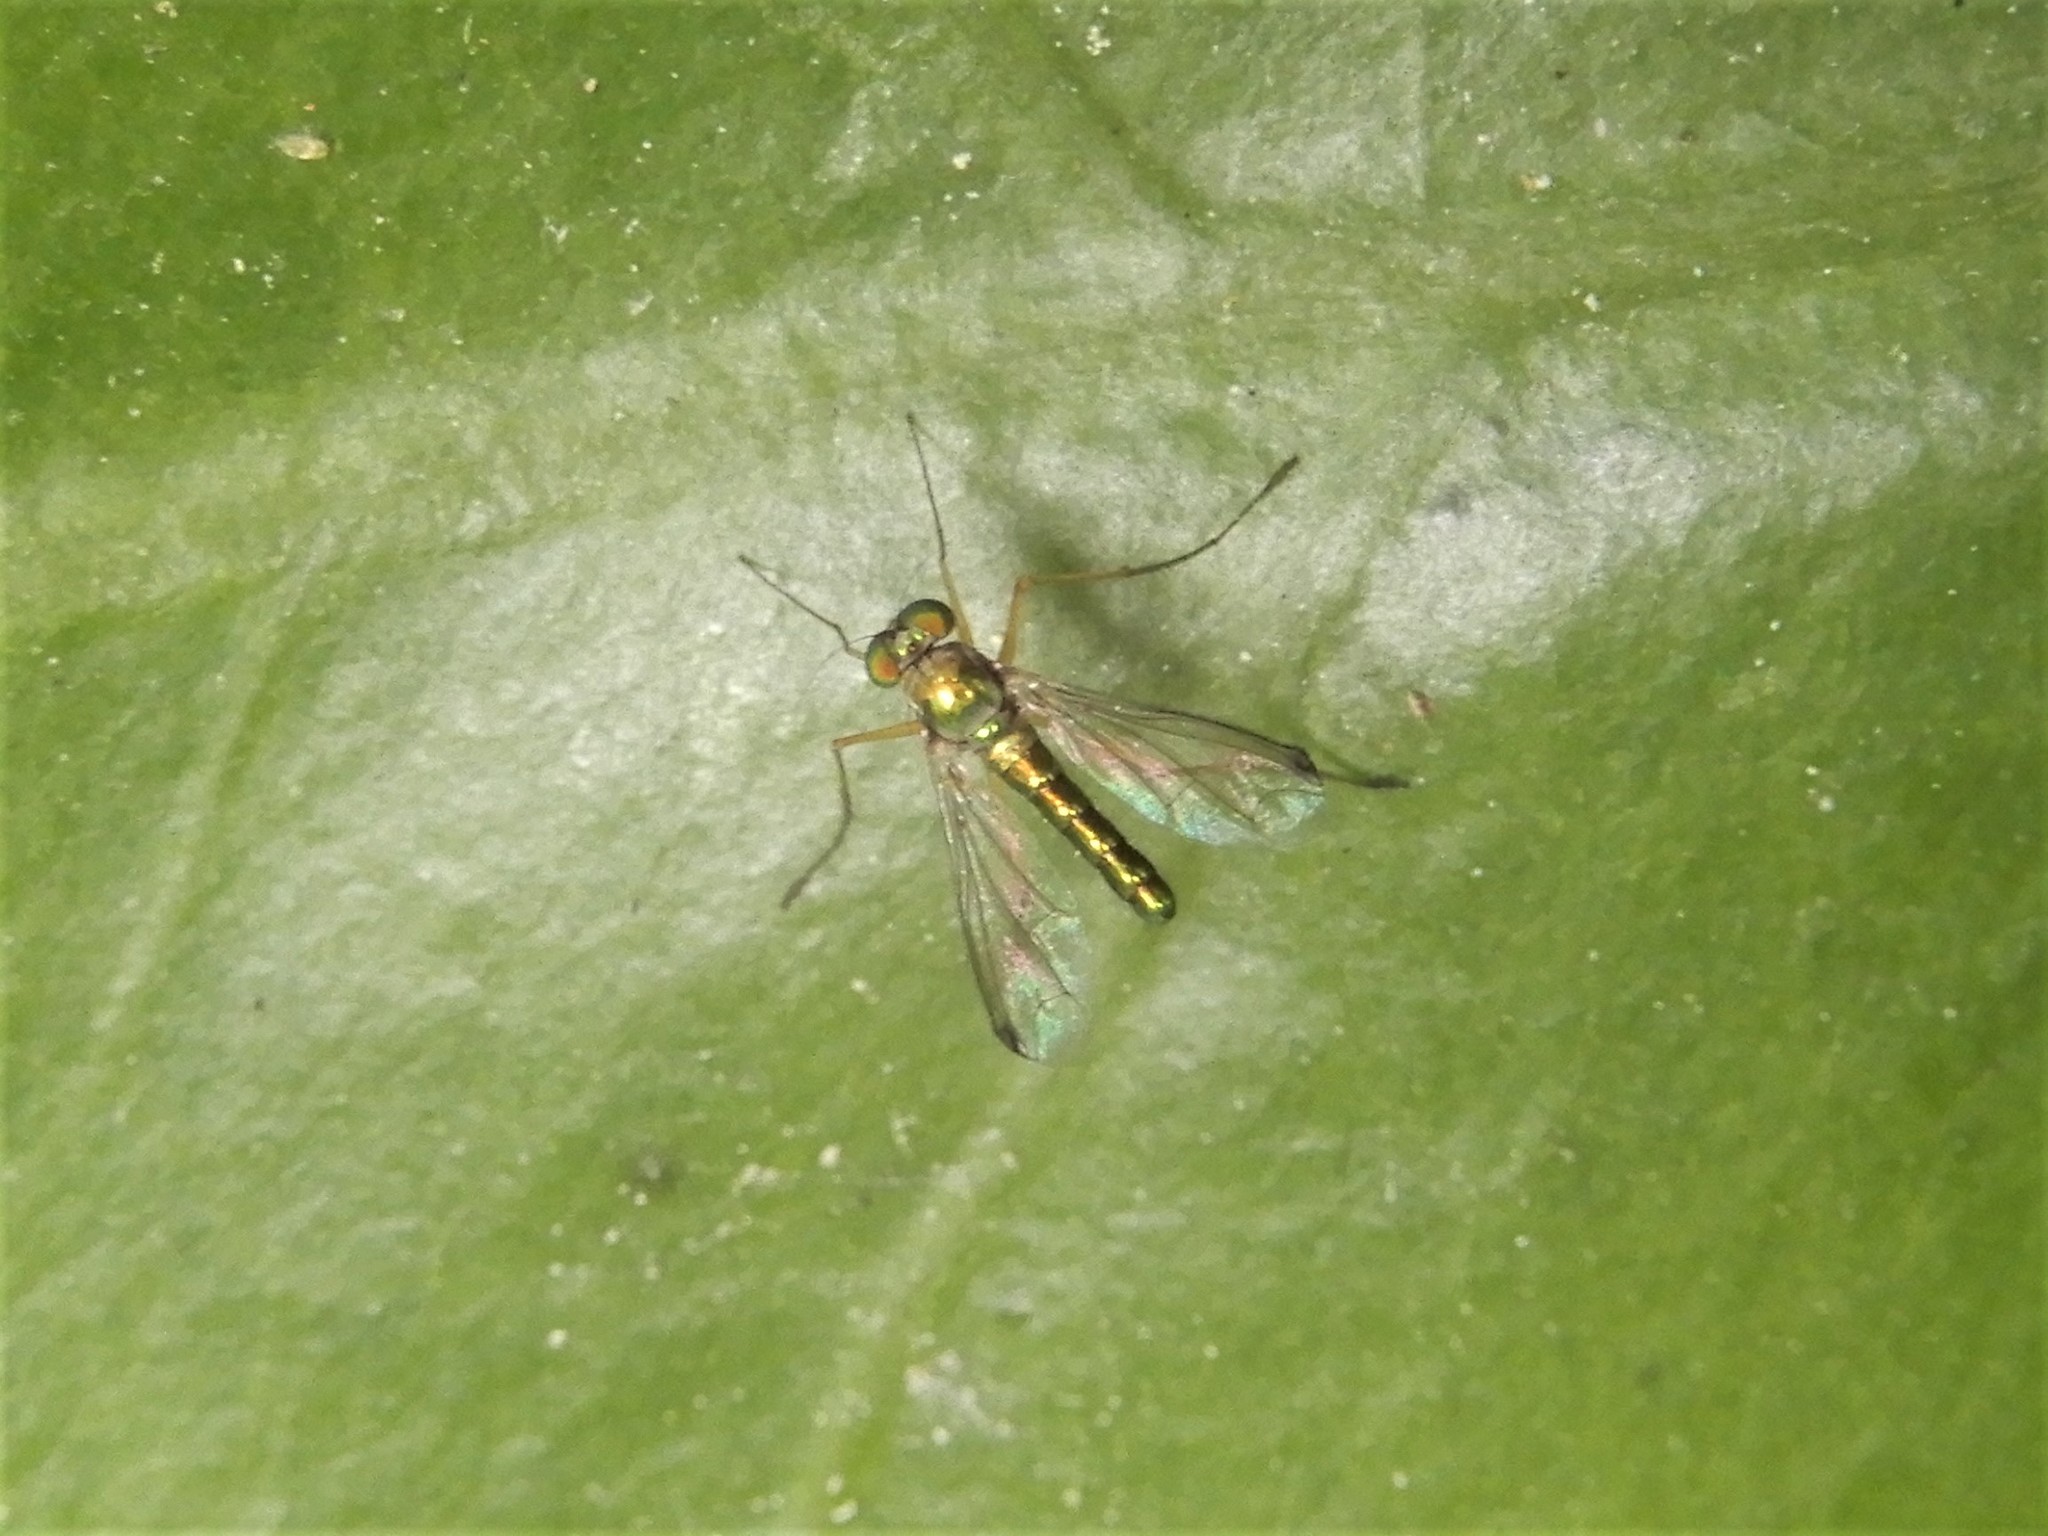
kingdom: Animalia
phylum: Arthropoda
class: Insecta
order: Diptera
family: Dolichopodidae
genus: Parentia
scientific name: Parentia anomalicosta
